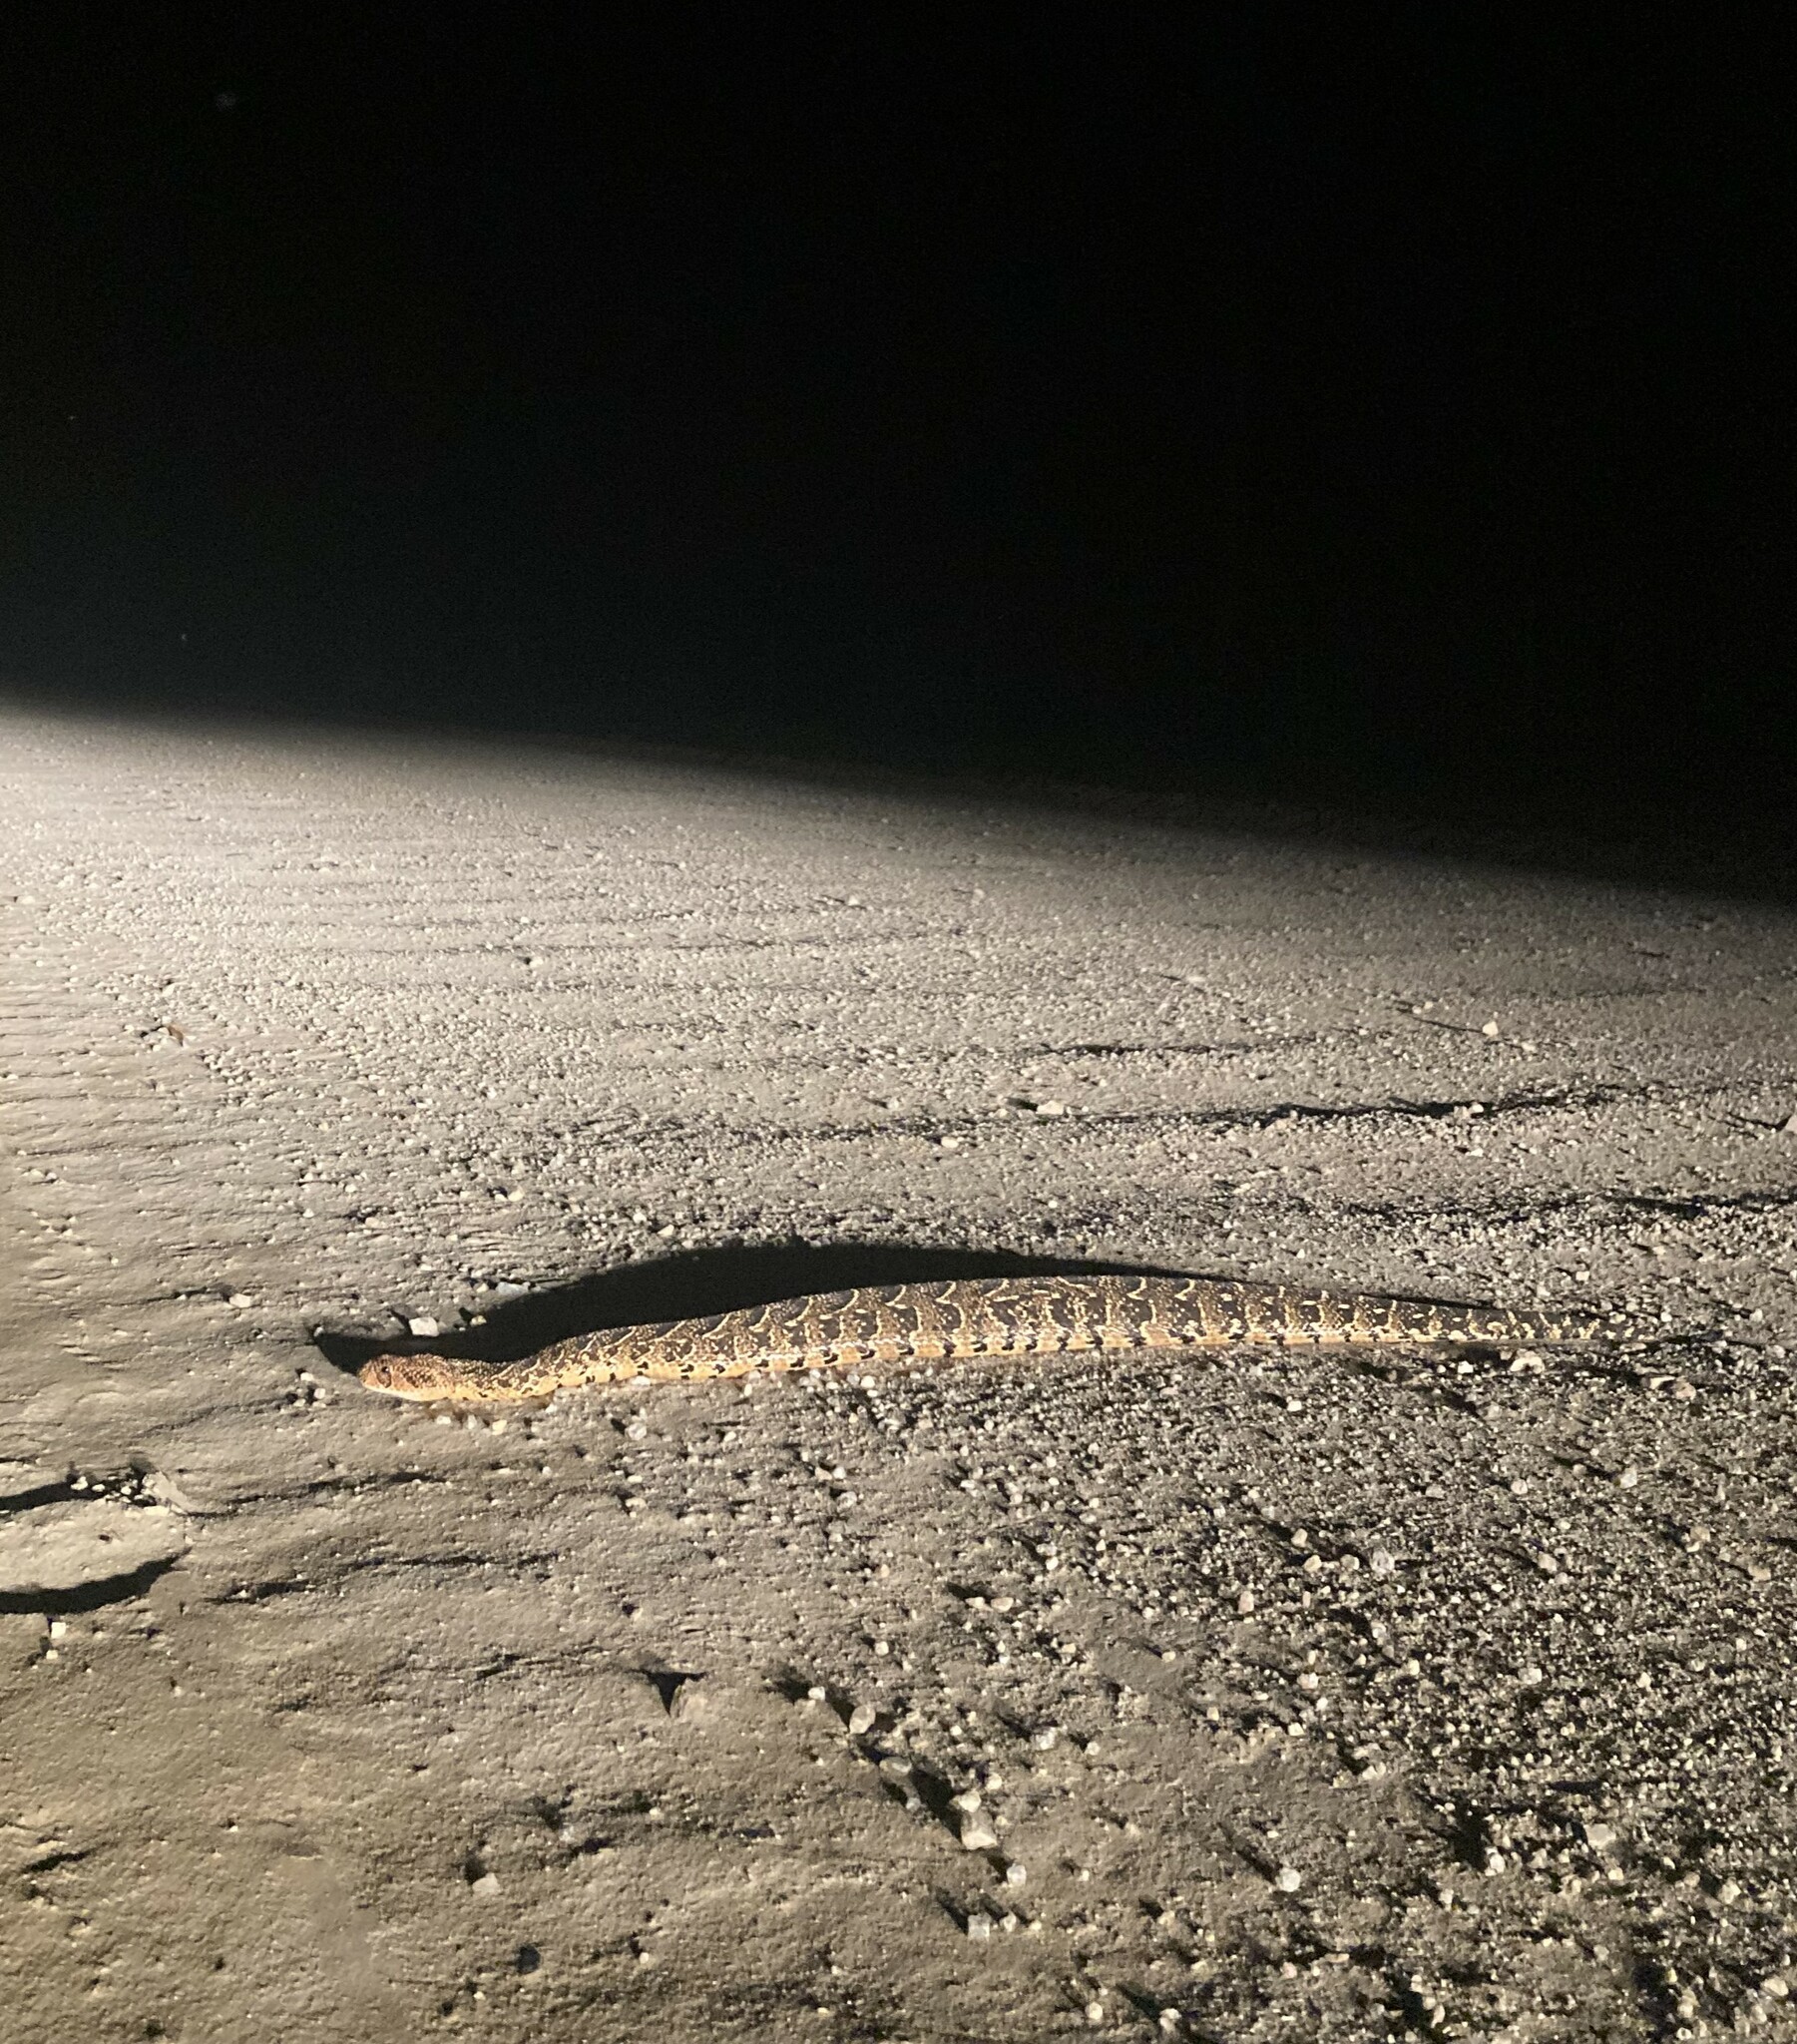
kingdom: Animalia
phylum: Chordata
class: Squamata
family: Viperidae
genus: Bitis
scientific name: Bitis arietans
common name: Puff adder
